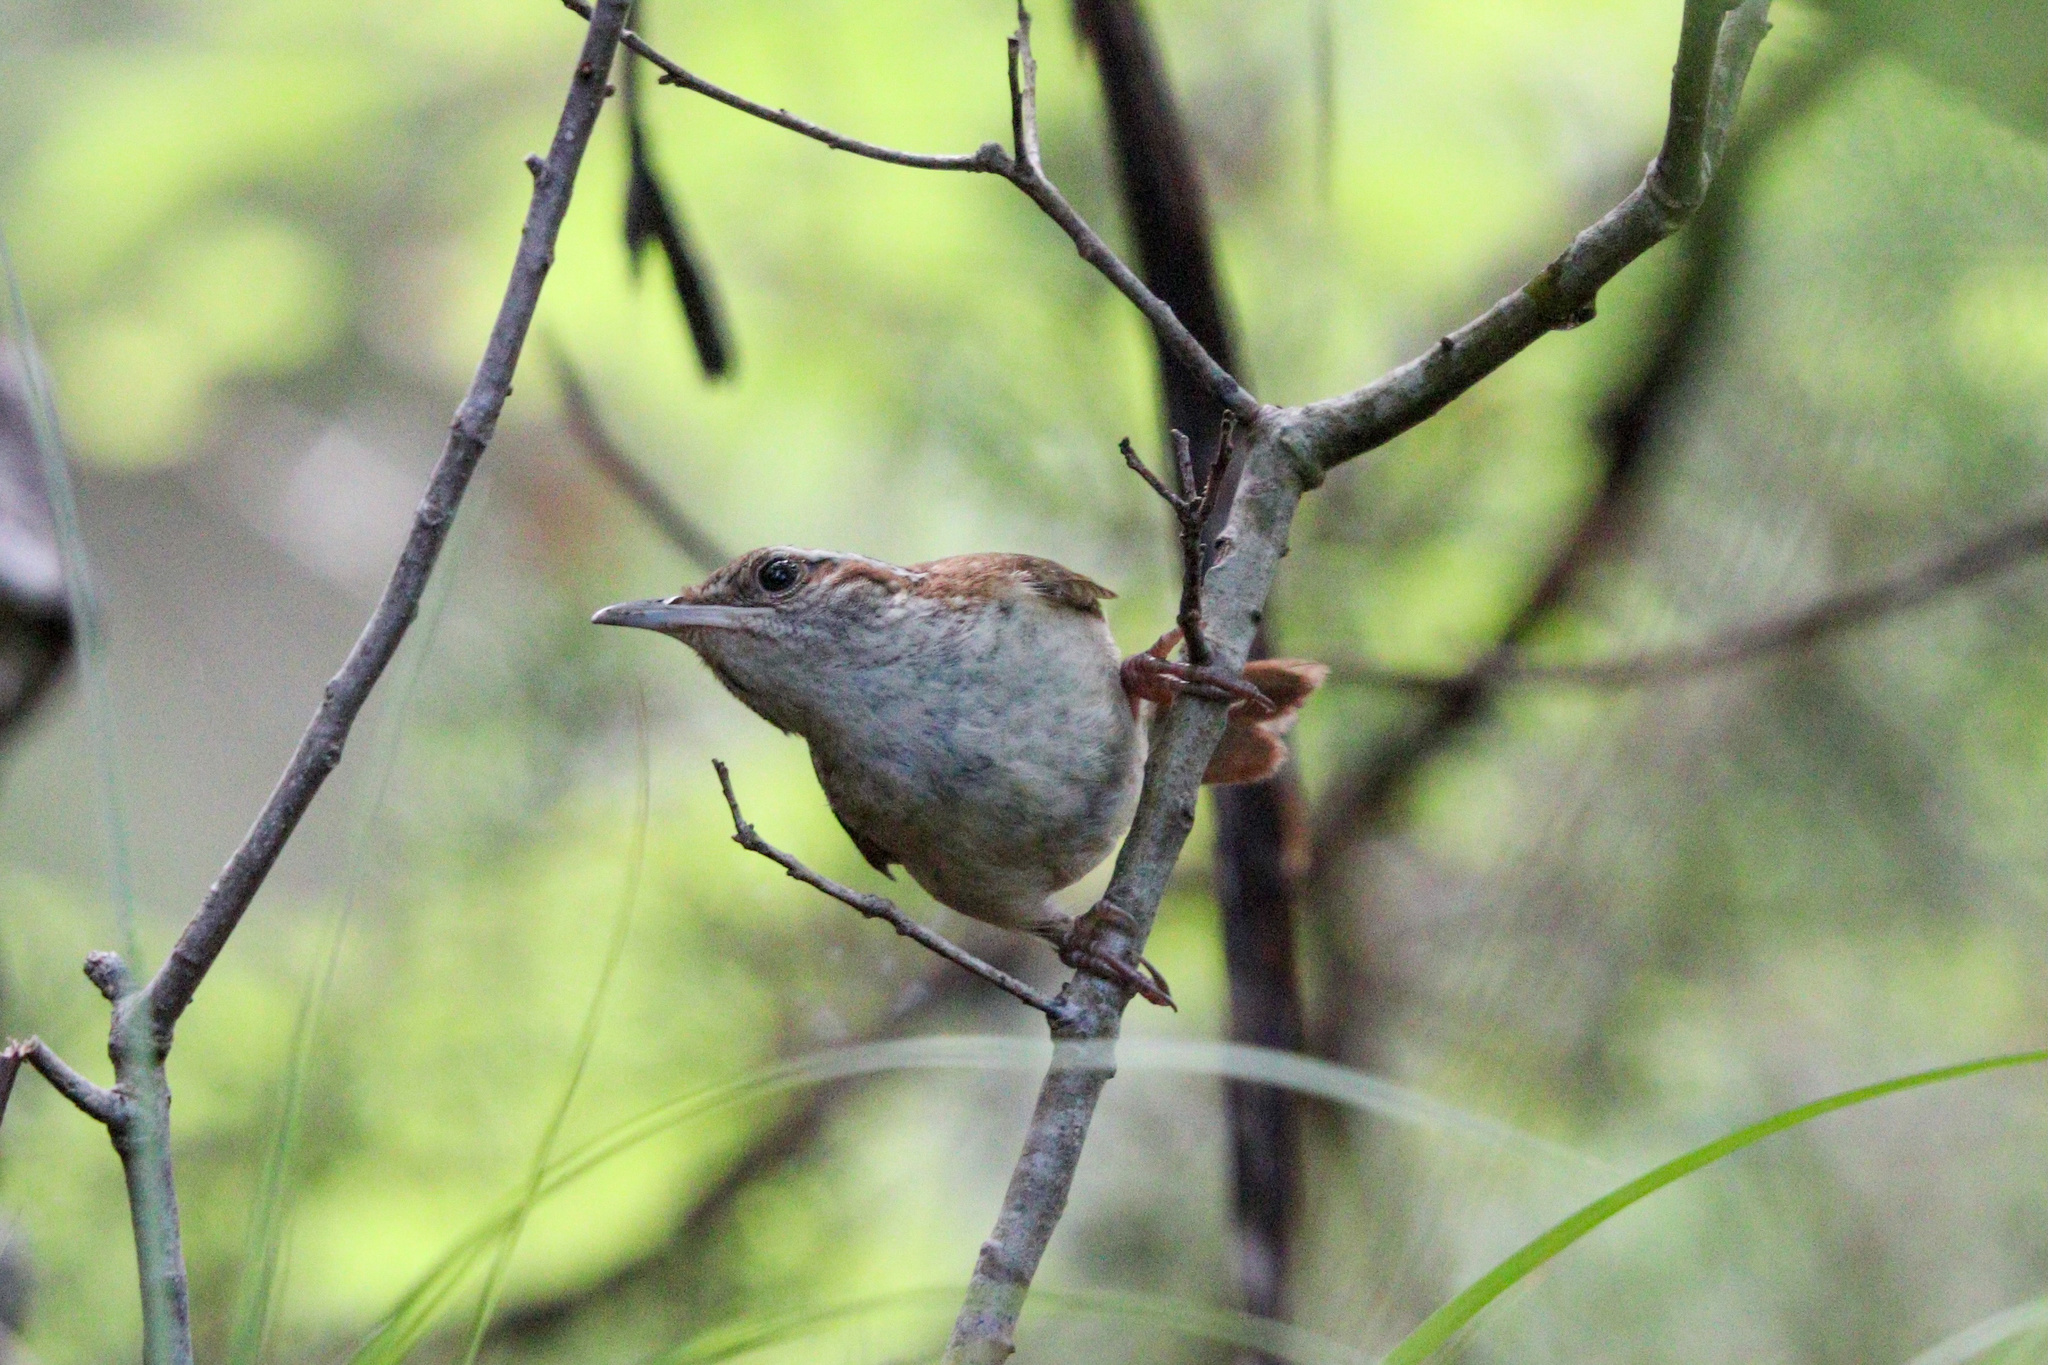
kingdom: Animalia
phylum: Chordata
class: Aves
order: Passeriformes
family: Troglodytidae
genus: Thryothorus
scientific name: Thryothorus ludovicianus
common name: Carolina wren
